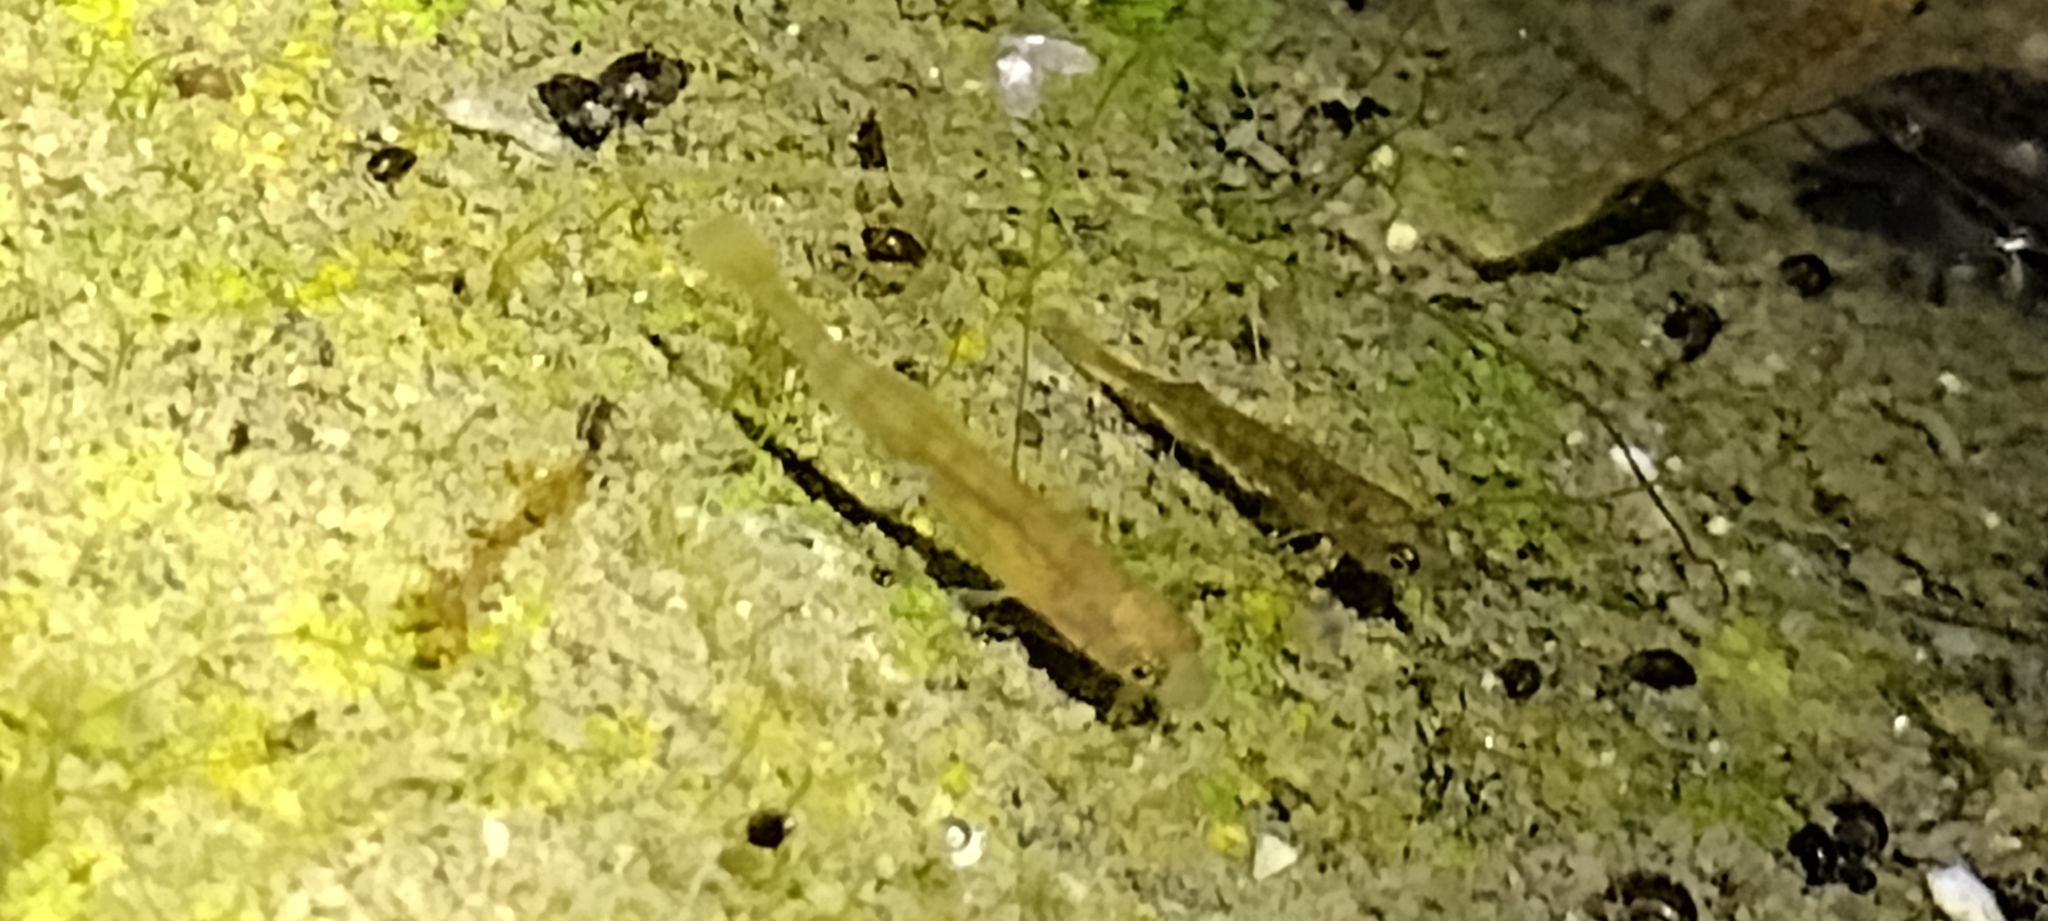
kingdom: Animalia
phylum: Chordata
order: Gasterosteiformes
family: Gasterosteidae
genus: Gasterosteus
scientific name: Gasterosteus aculeatus
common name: Three-spined stickleback
